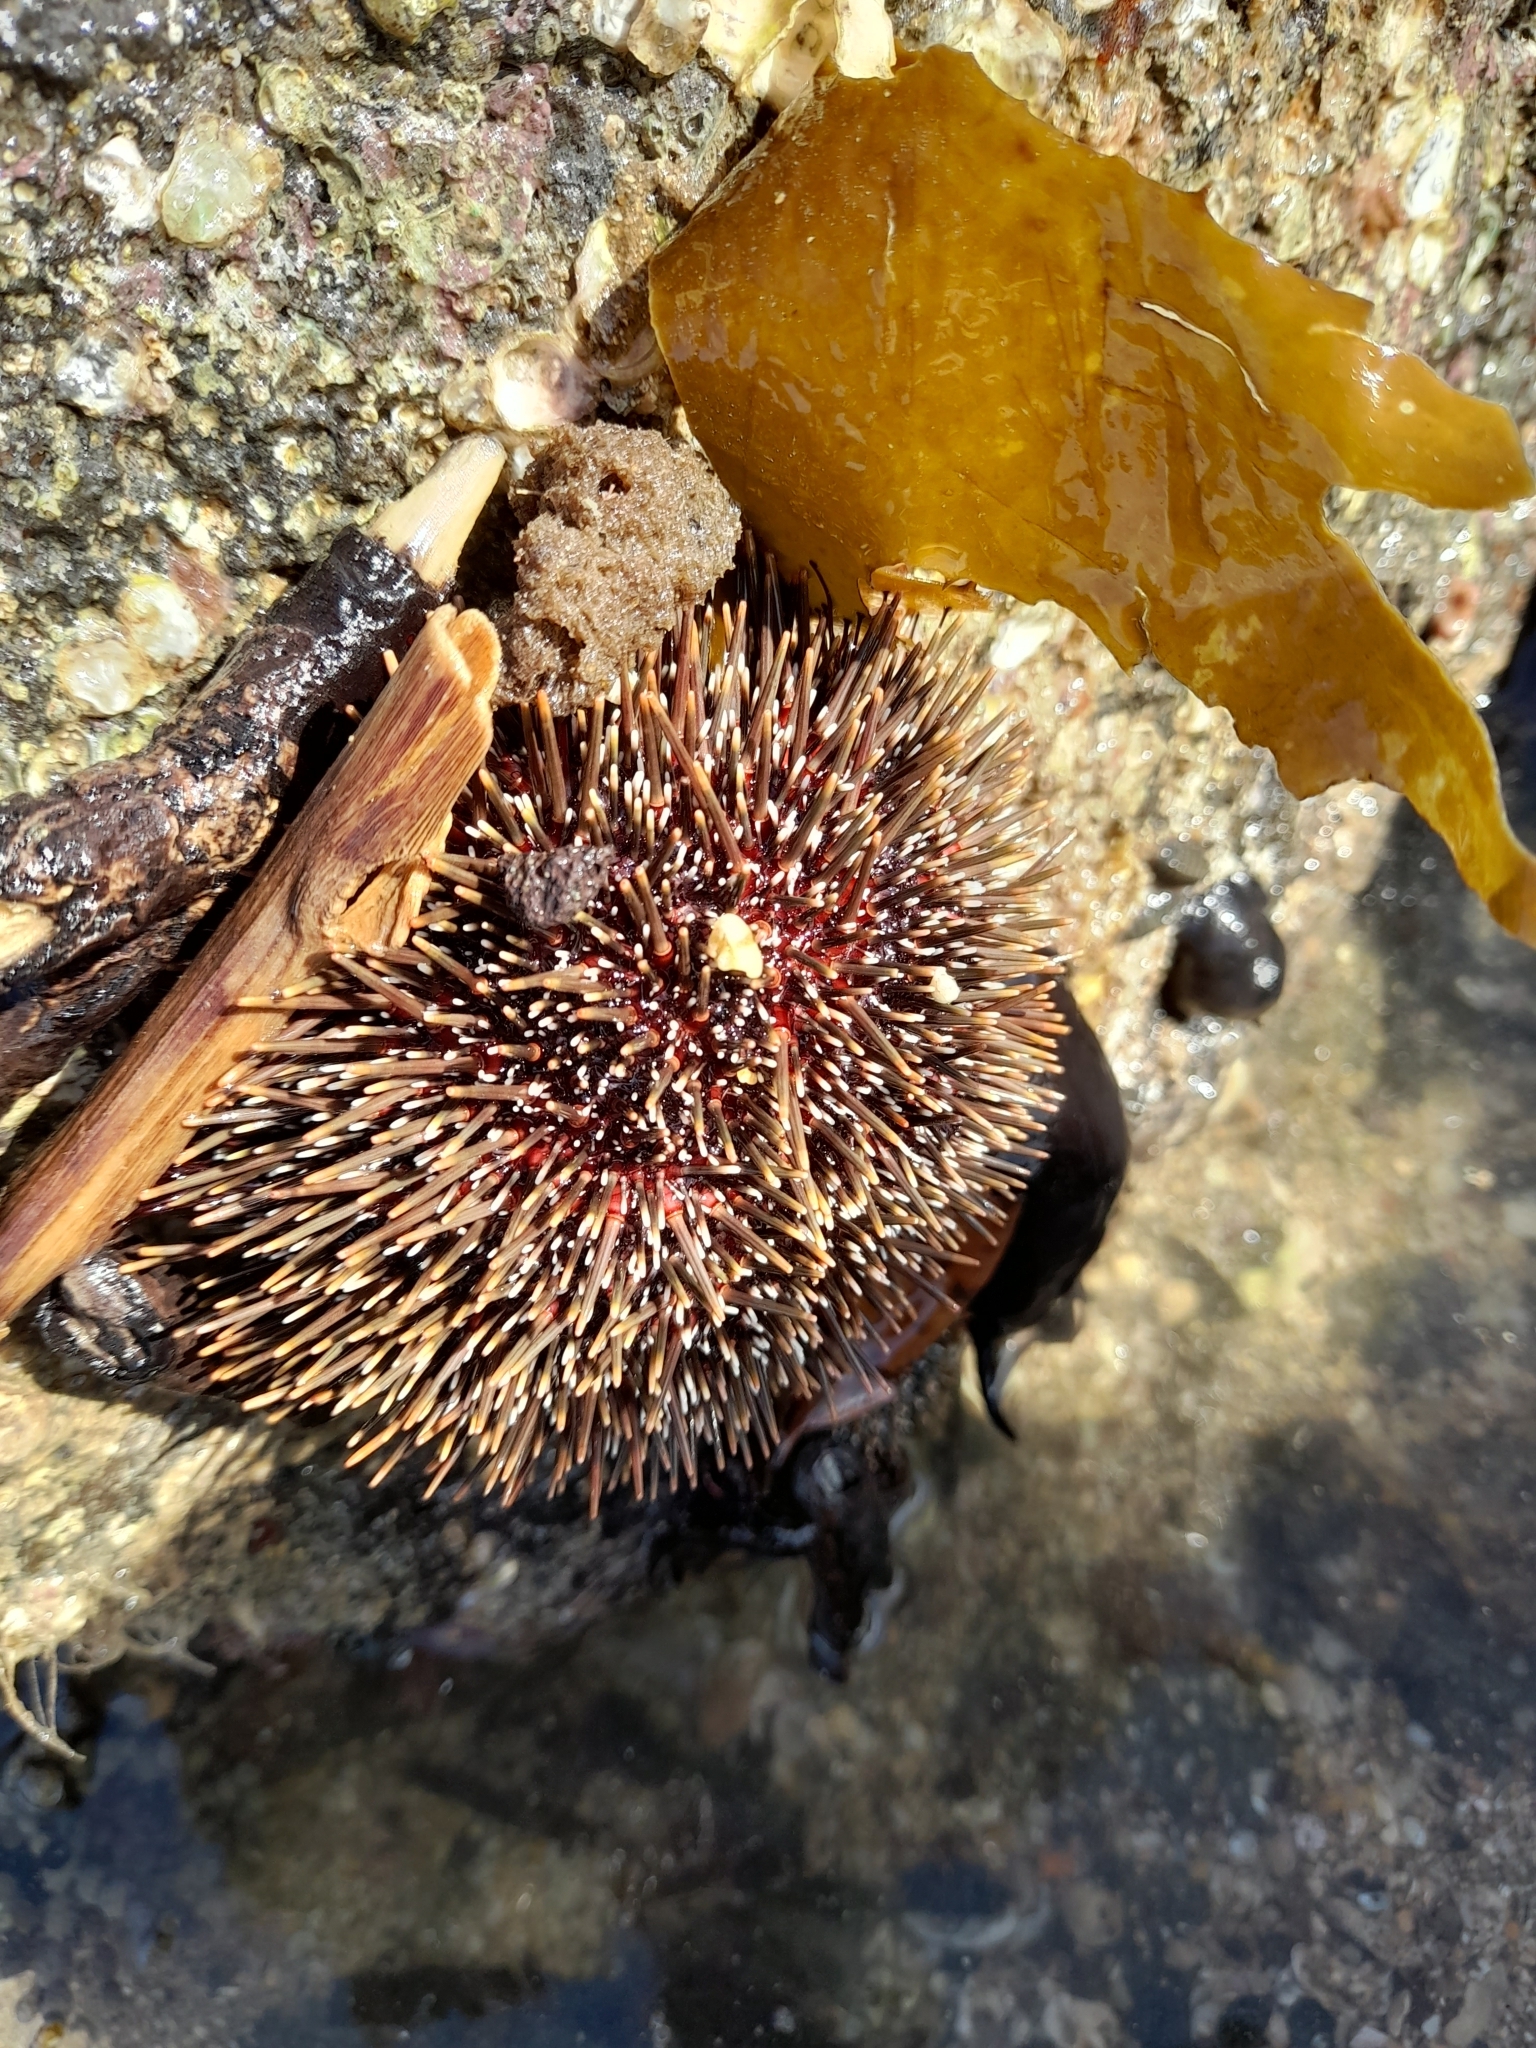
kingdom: Animalia
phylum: Echinodermata
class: Echinoidea
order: Camarodonta
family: Echinometridae
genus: Evechinus
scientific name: Evechinus chloroticus
